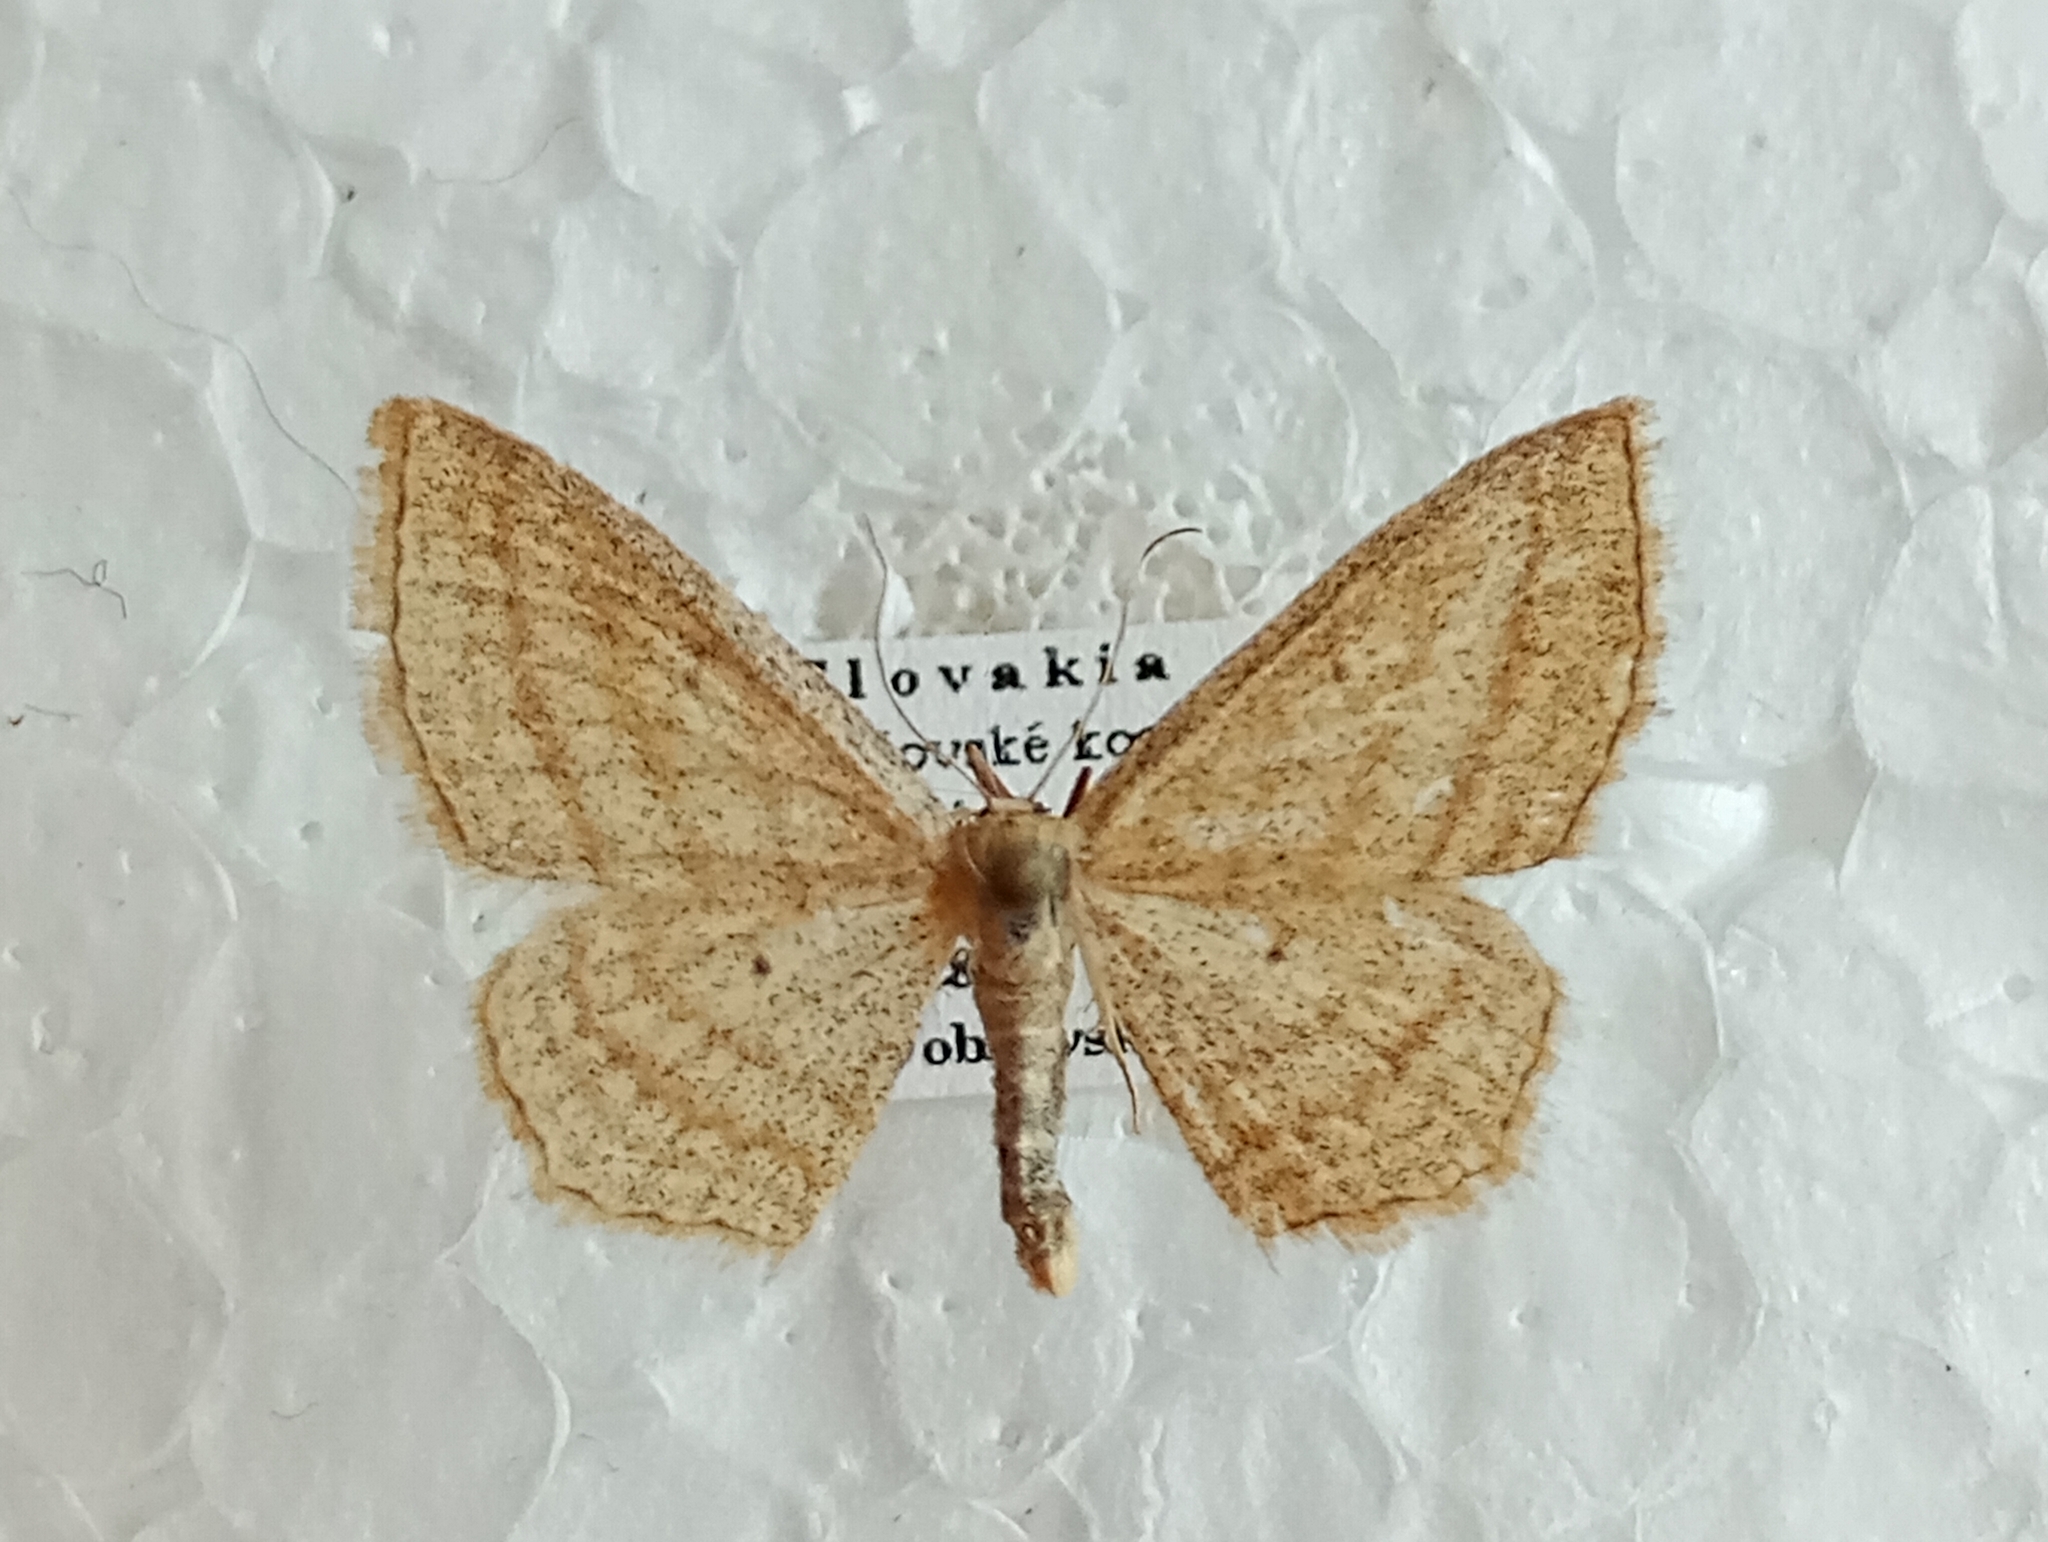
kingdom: Animalia
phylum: Arthropoda
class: Insecta
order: Lepidoptera
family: Geometridae
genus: Scopula
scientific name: Scopula virgulata
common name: Streaked wave
